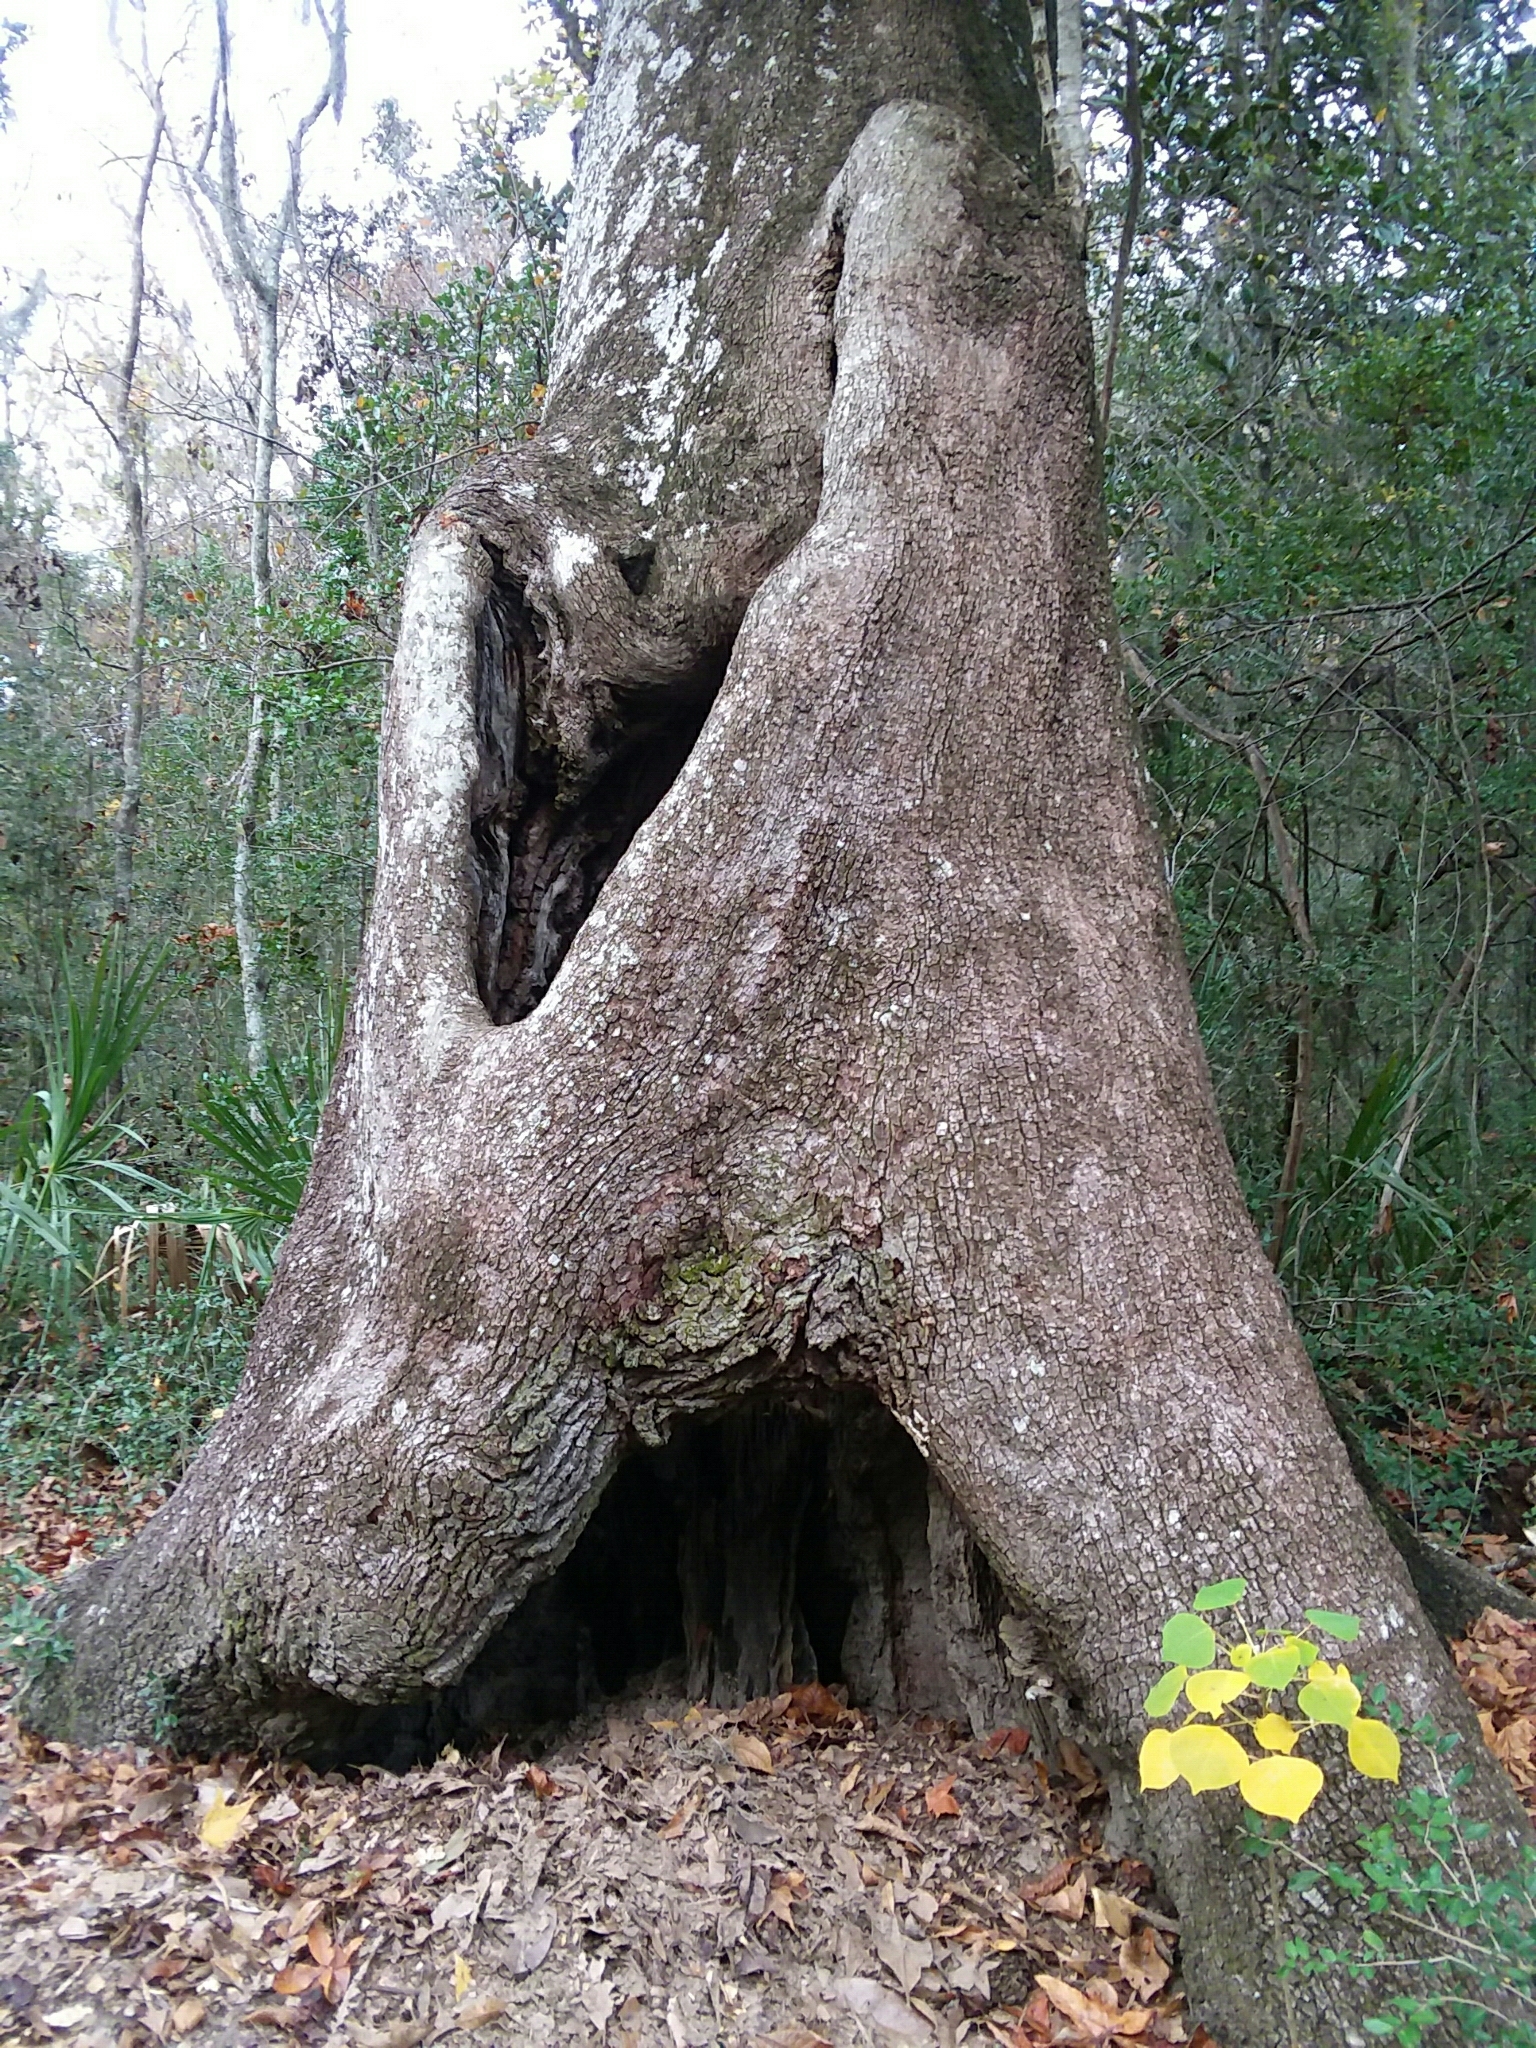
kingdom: Plantae
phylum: Tracheophyta
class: Magnoliopsida
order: Malpighiales
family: Euphorbiaceae
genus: Triadica
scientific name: Triadica sebifera
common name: Chinese tallow
